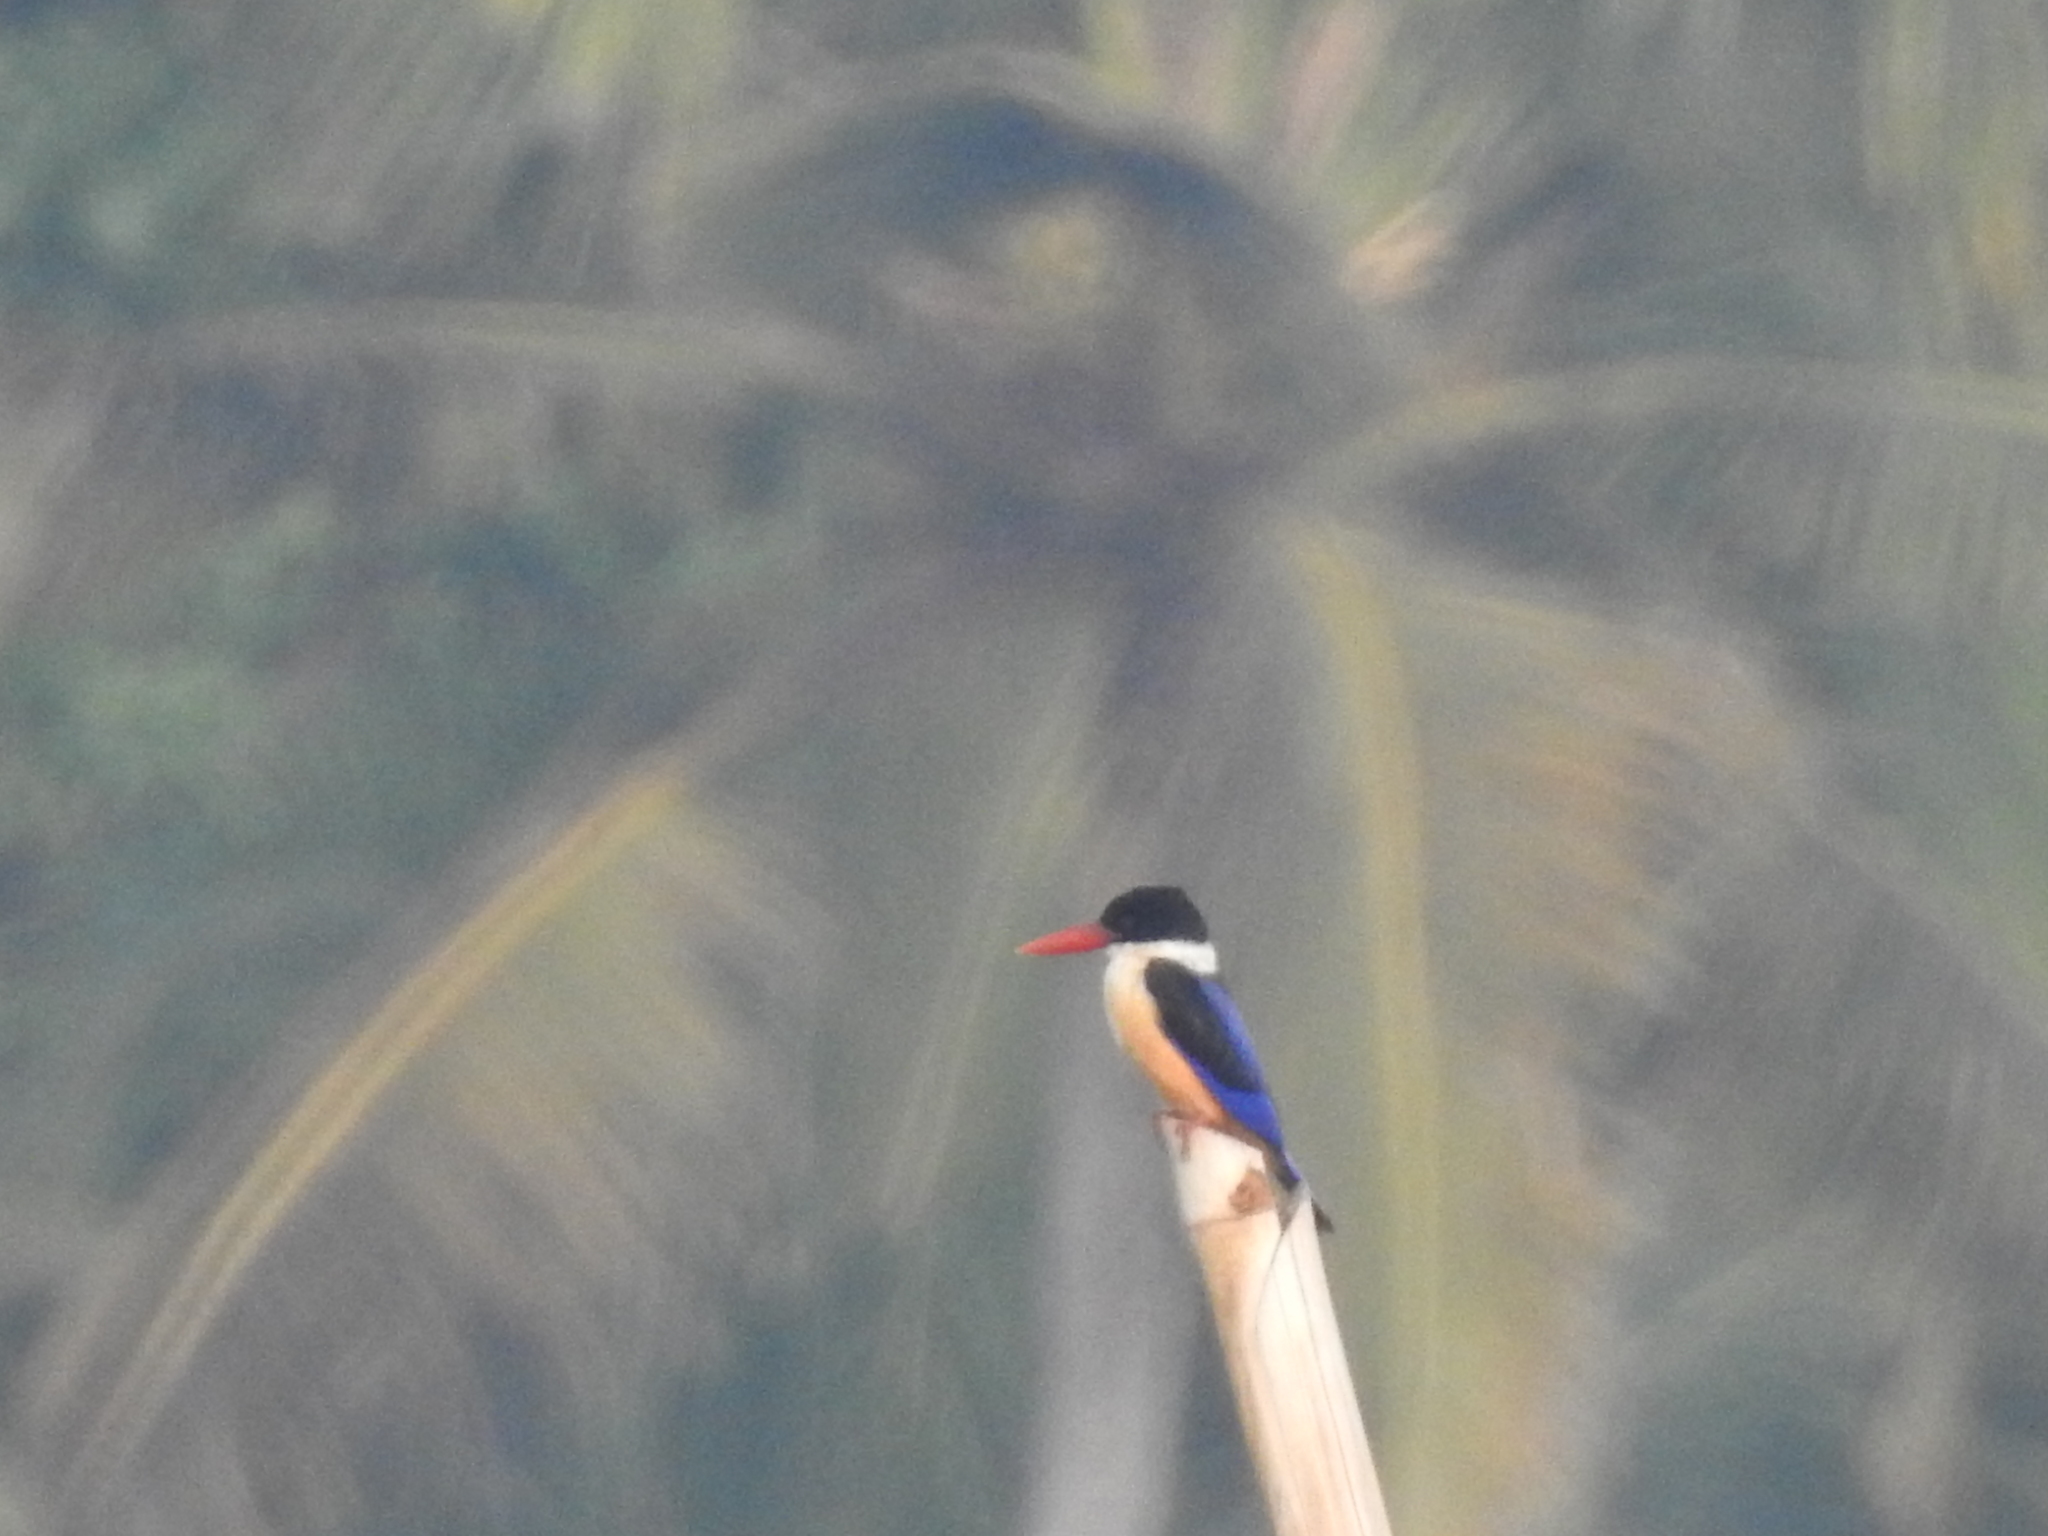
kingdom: Animalia
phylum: Chordata
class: Aves
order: Coraciiformes
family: Alcedinidae
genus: Halcyon
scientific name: Halcyon pileata
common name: Black-capped kingfisher
